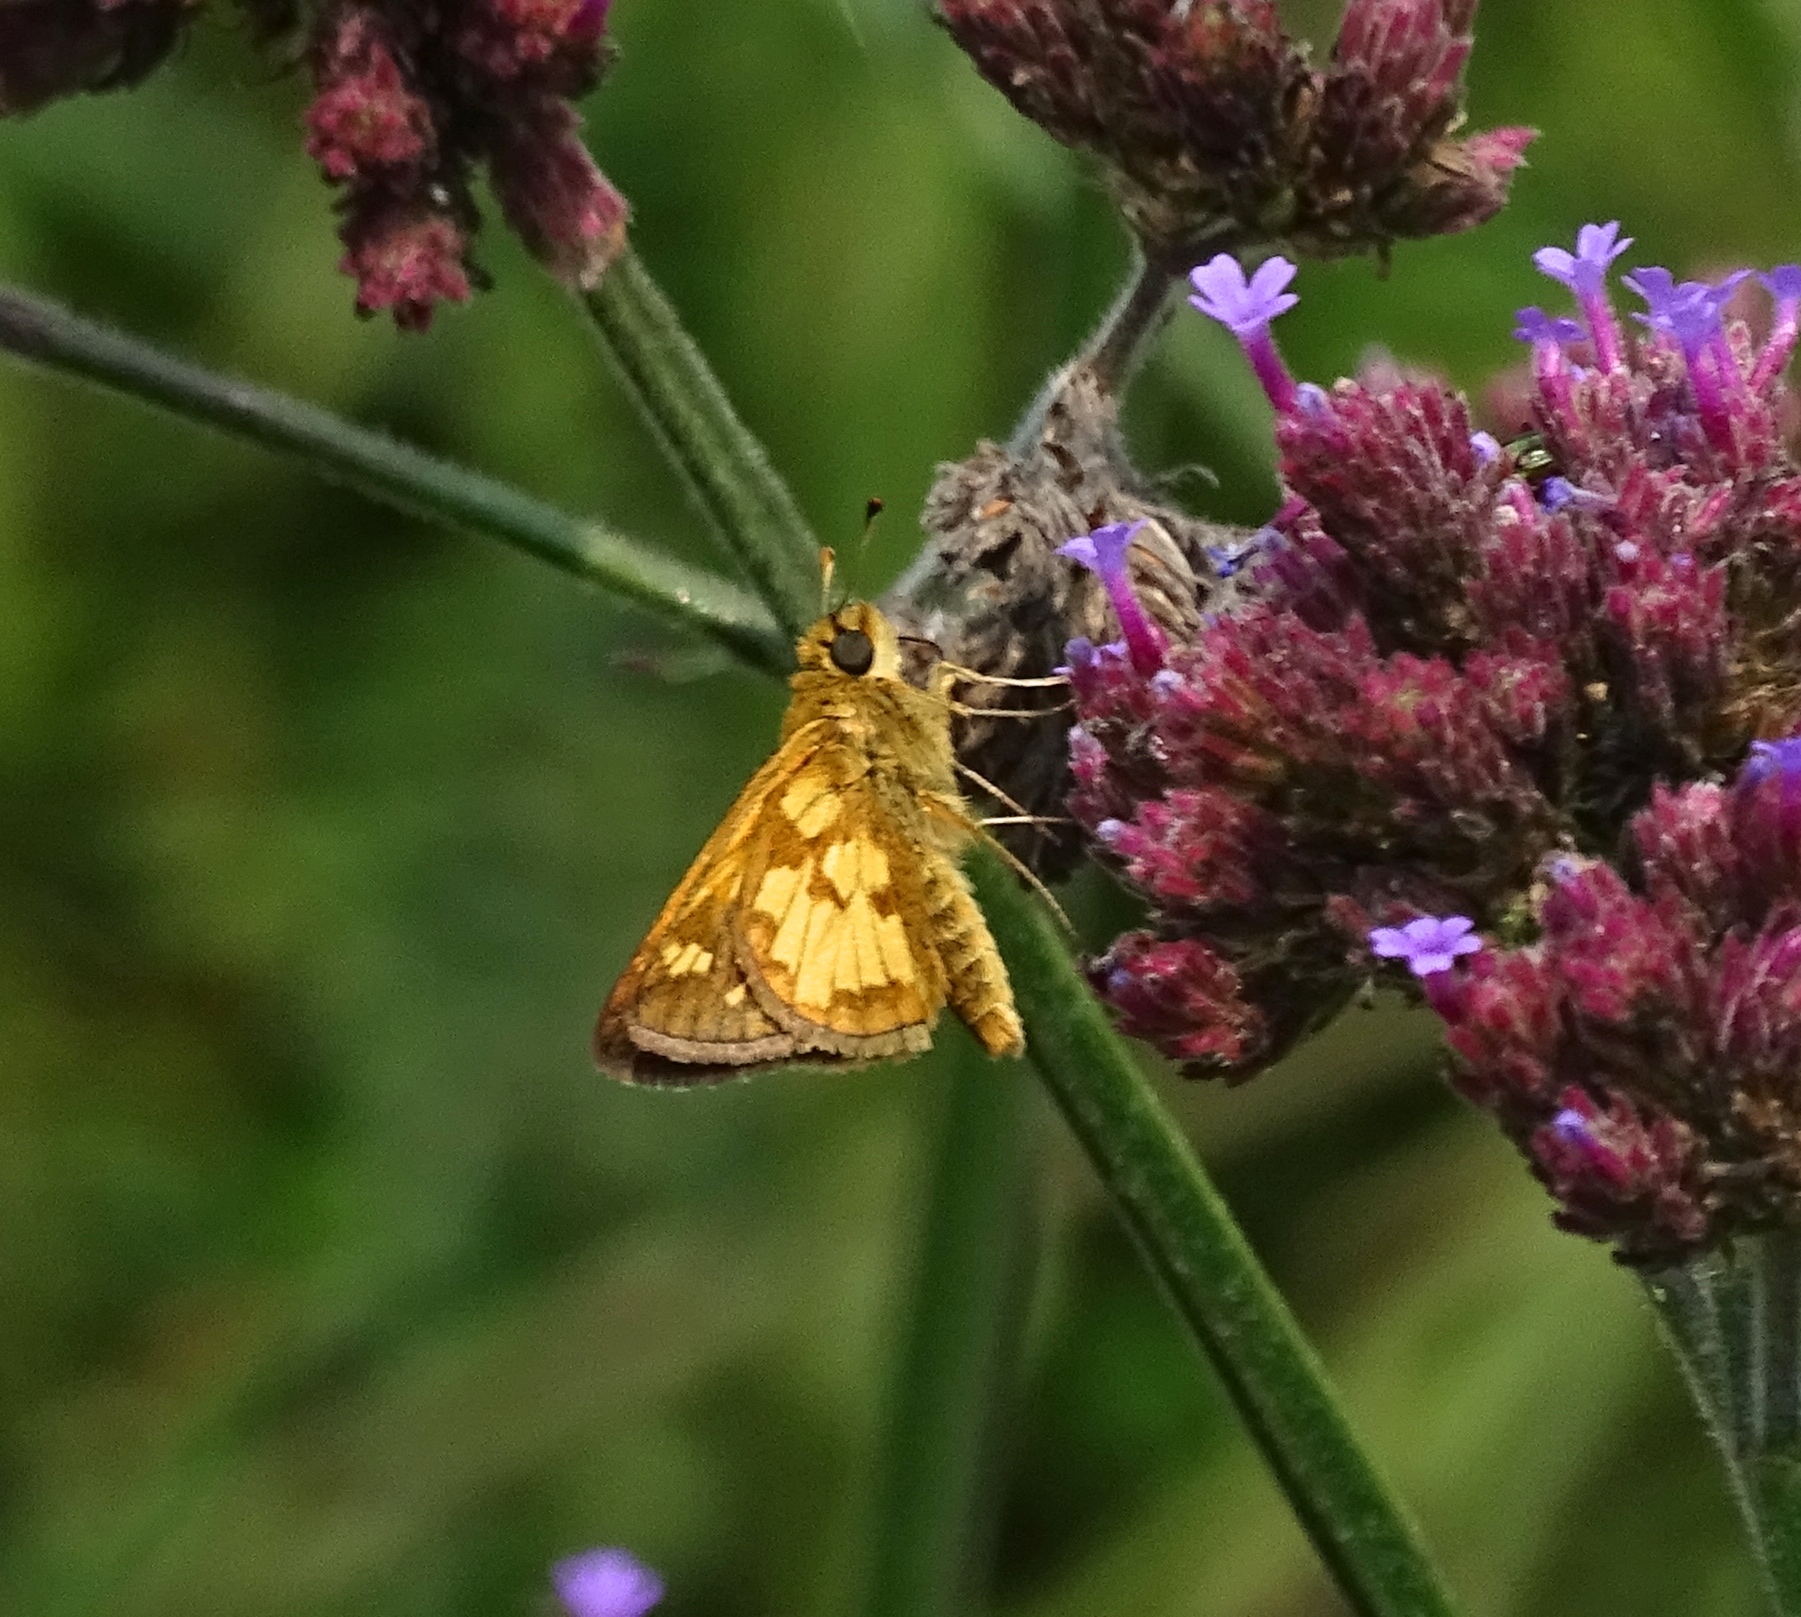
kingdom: Animalia
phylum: Arthropoda
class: Insecta
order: Lepidoptera
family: Hesperiidae
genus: Polites
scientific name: Polites coras
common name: Peck's skipper
